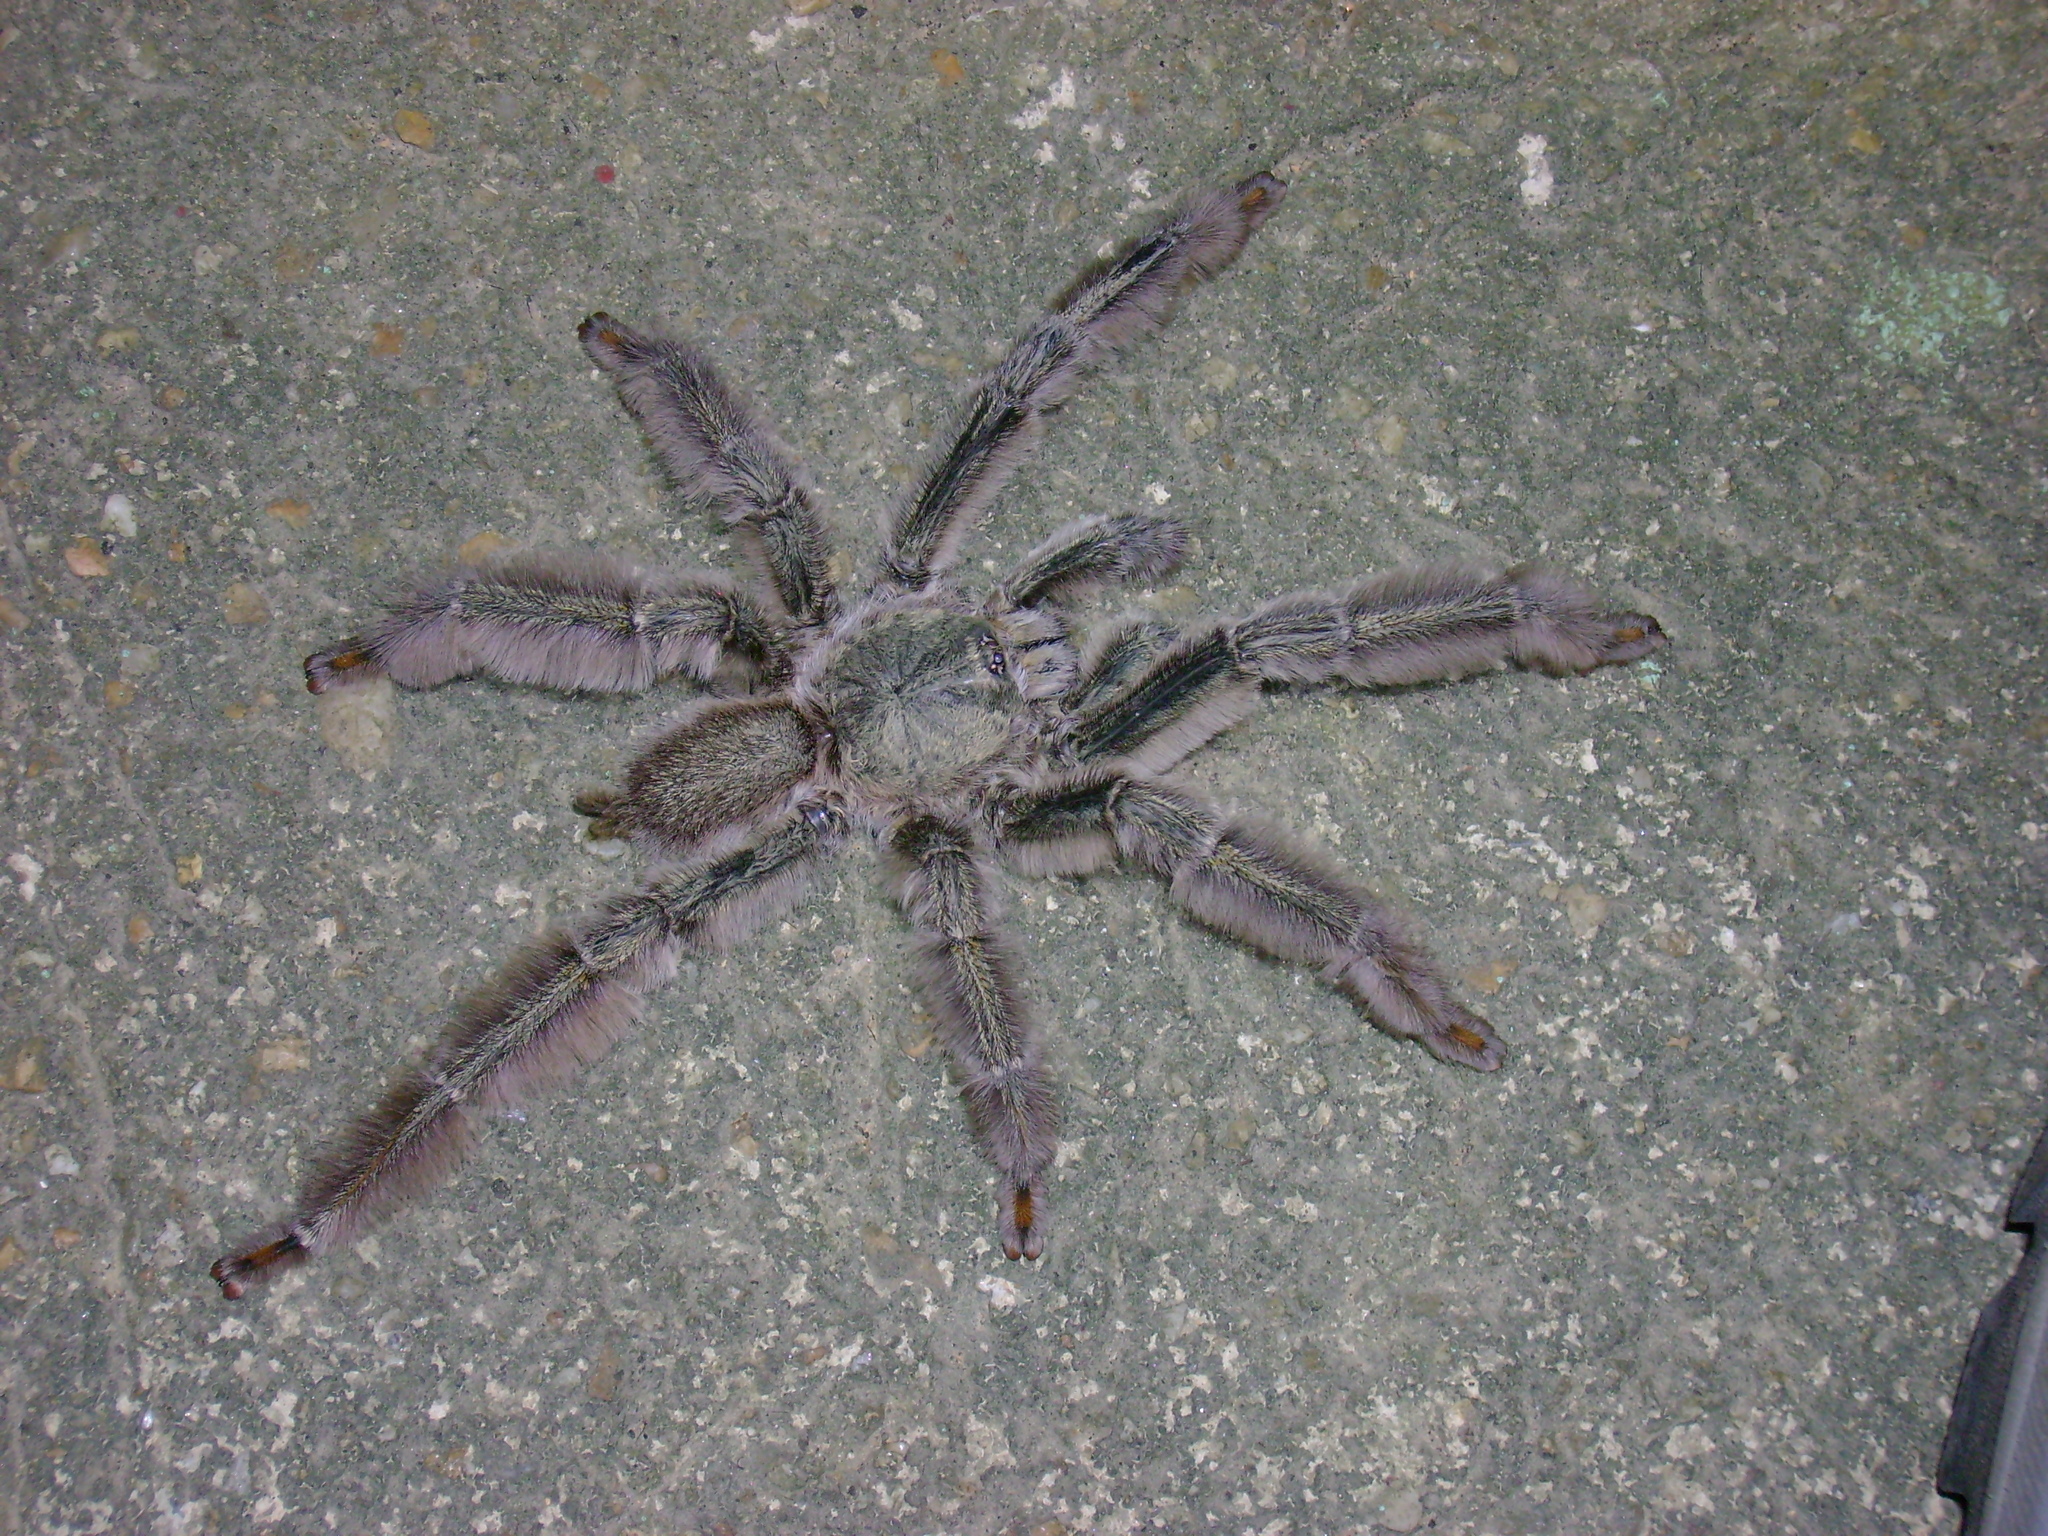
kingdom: Animalia
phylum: Arthropoda
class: Arachnida
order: Araneae
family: Theraphosidae
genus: Psalmopoeus
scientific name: Psalmopoeus cambridgei
